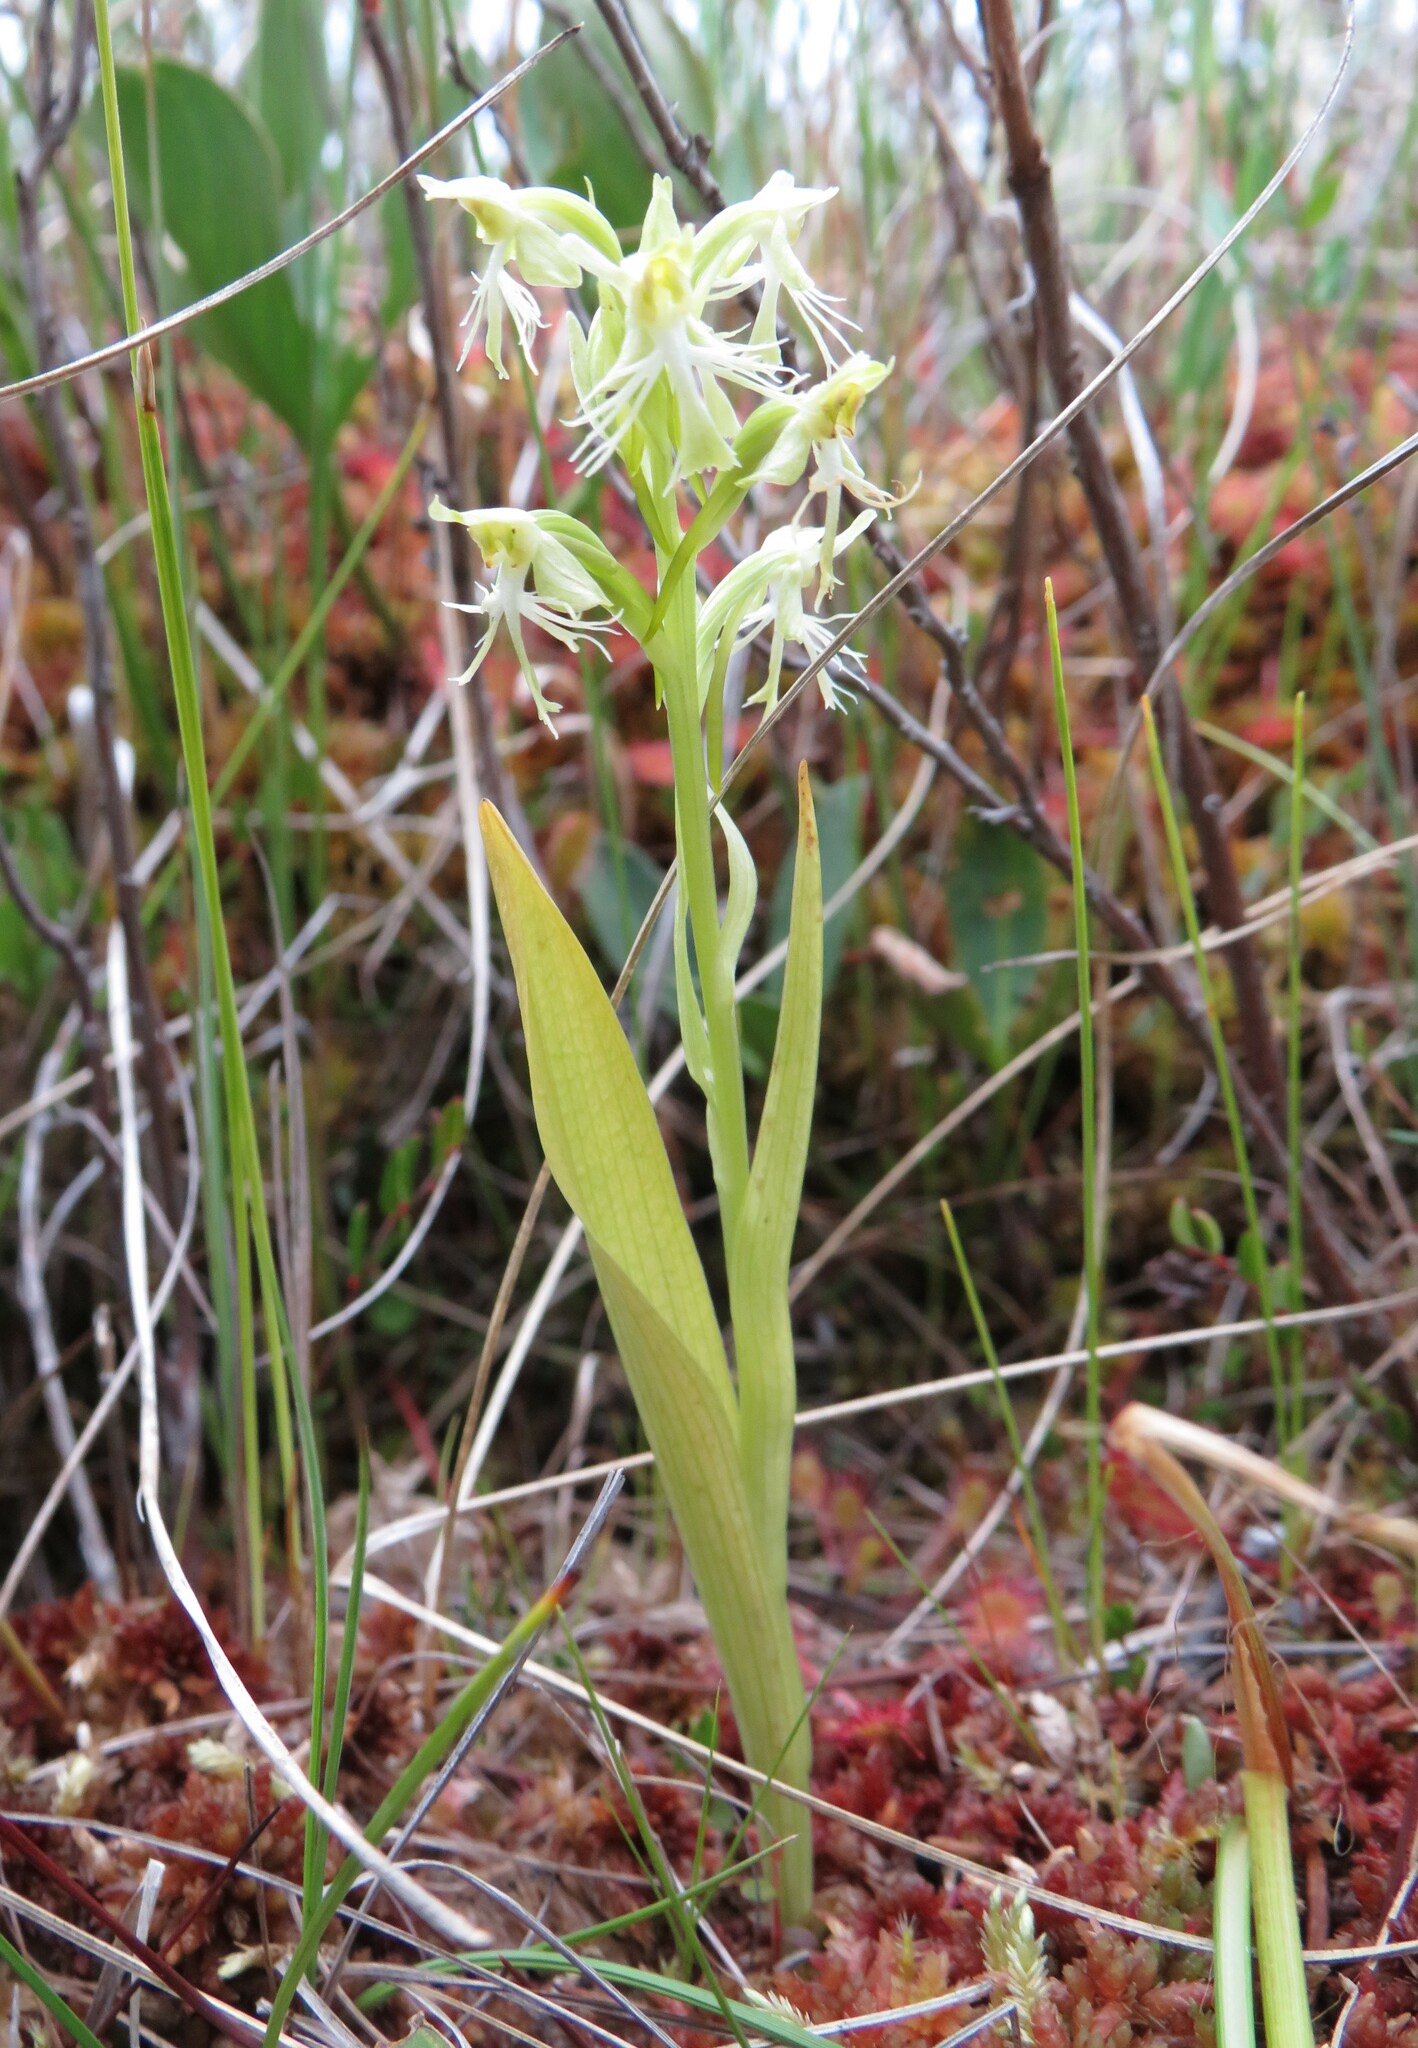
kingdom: Plantae
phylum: Tracheophyta
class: Liliopsida
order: Asparagales
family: Orchidaceae
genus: Platanthera
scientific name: Platanthera lacera
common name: Green fringed orchid
